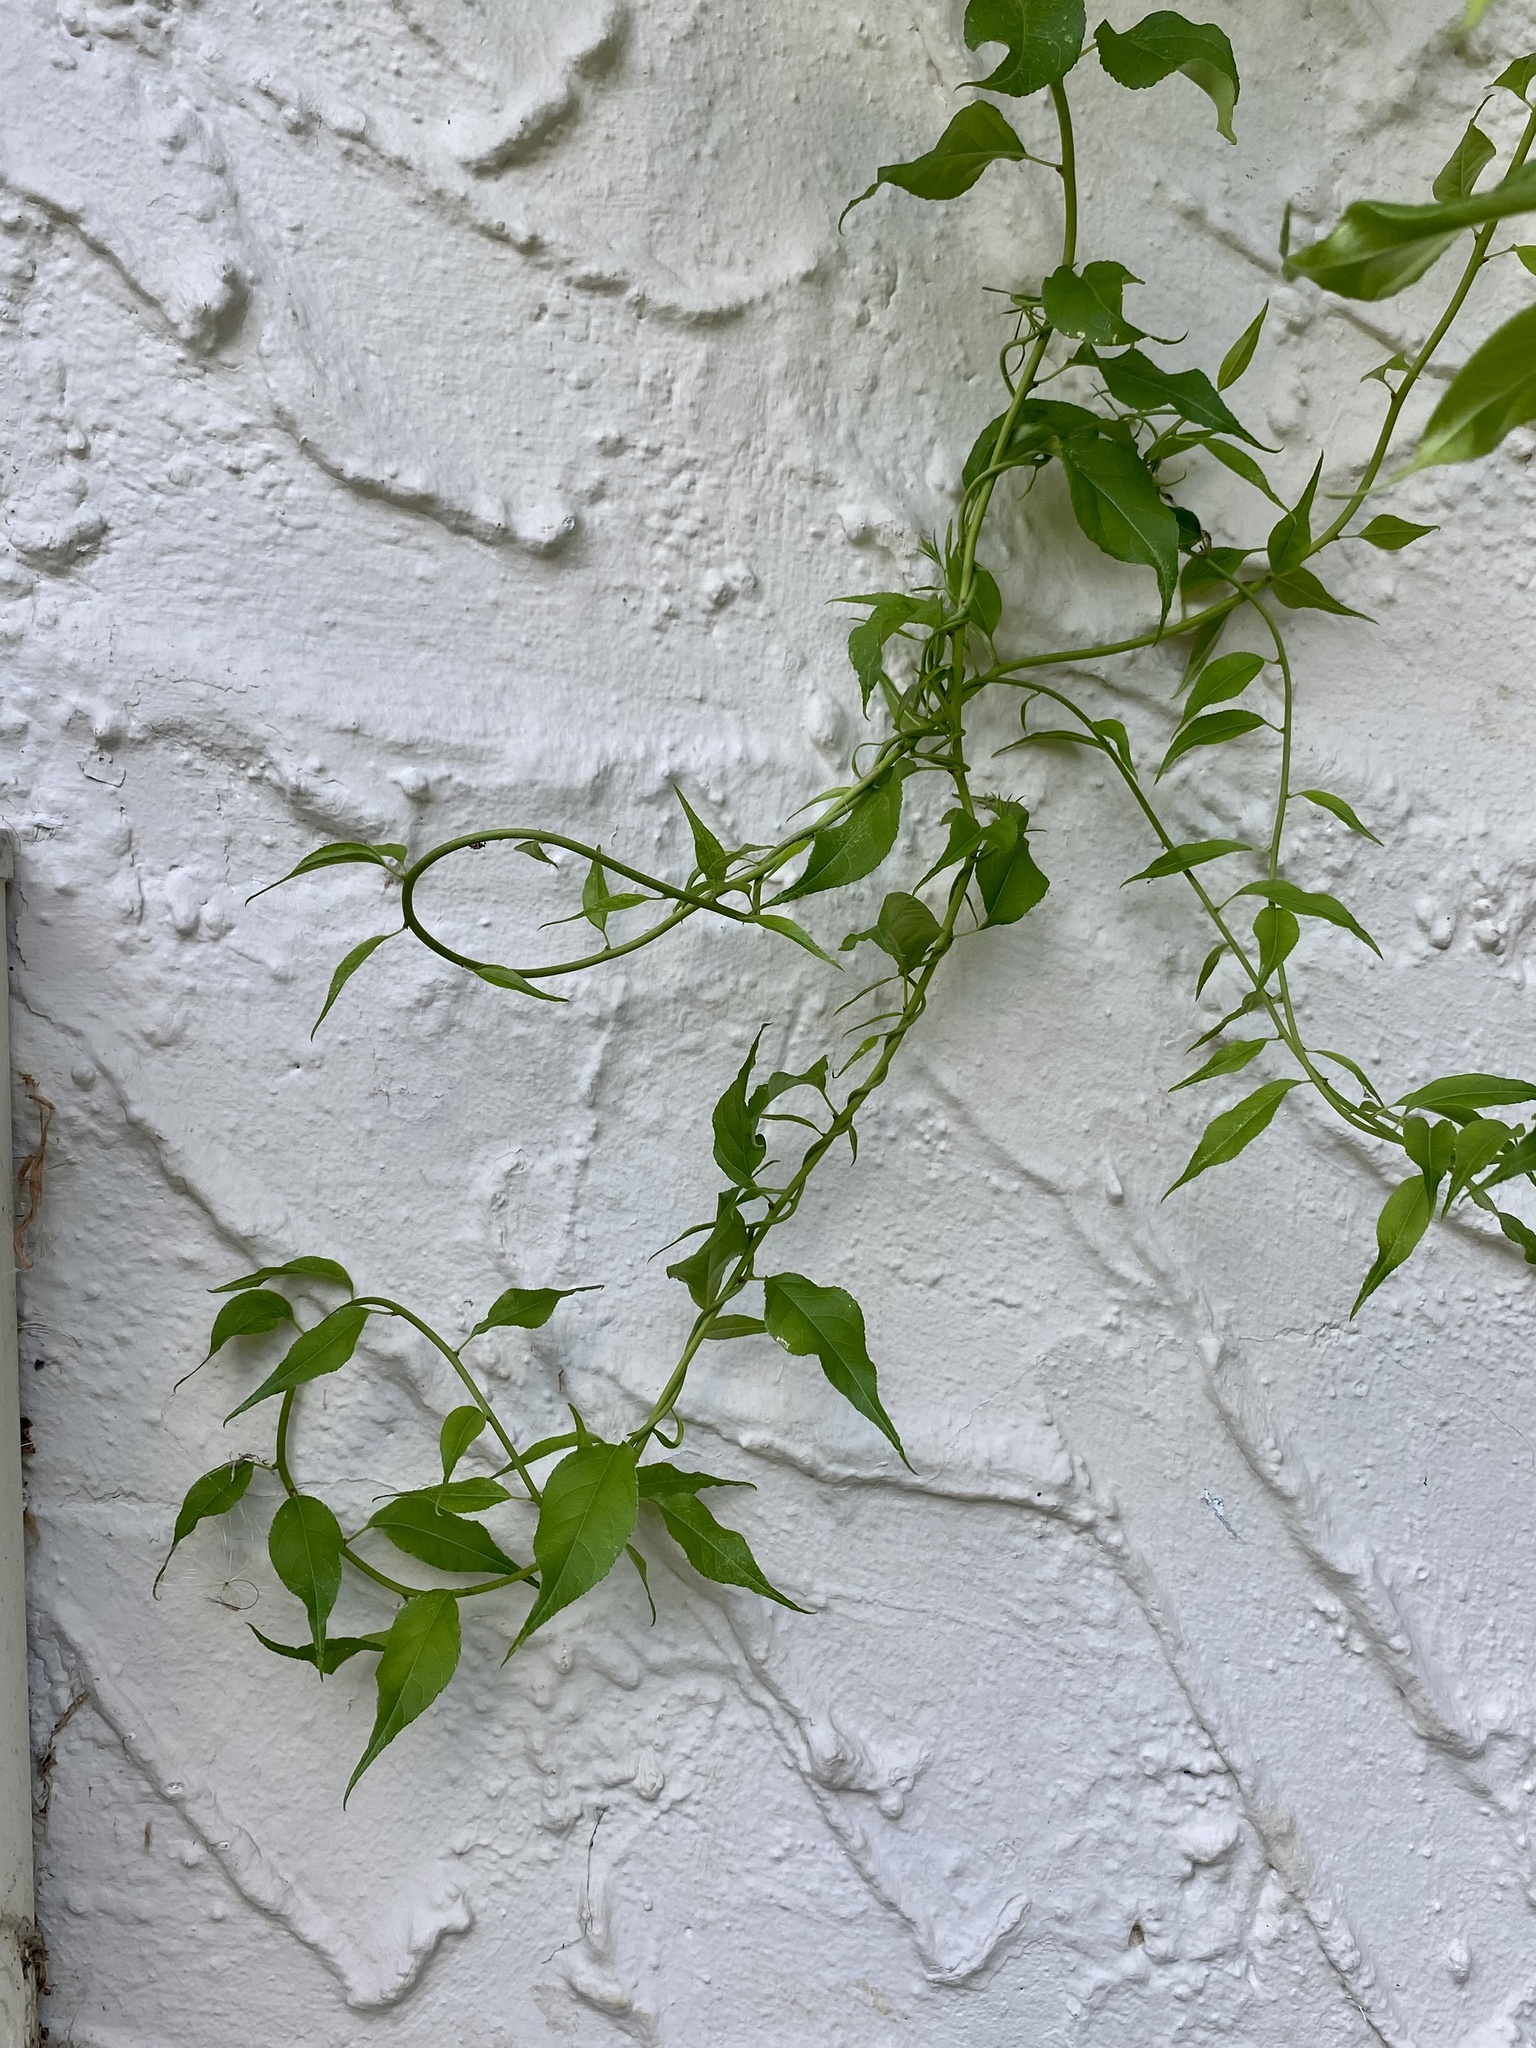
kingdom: Plantae
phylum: Tracheophyta
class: Magnoliopsida
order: Celastrales
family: Celastraceae
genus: Celastrus
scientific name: Celastrus orbiculatus
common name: Oriental bittersweet
